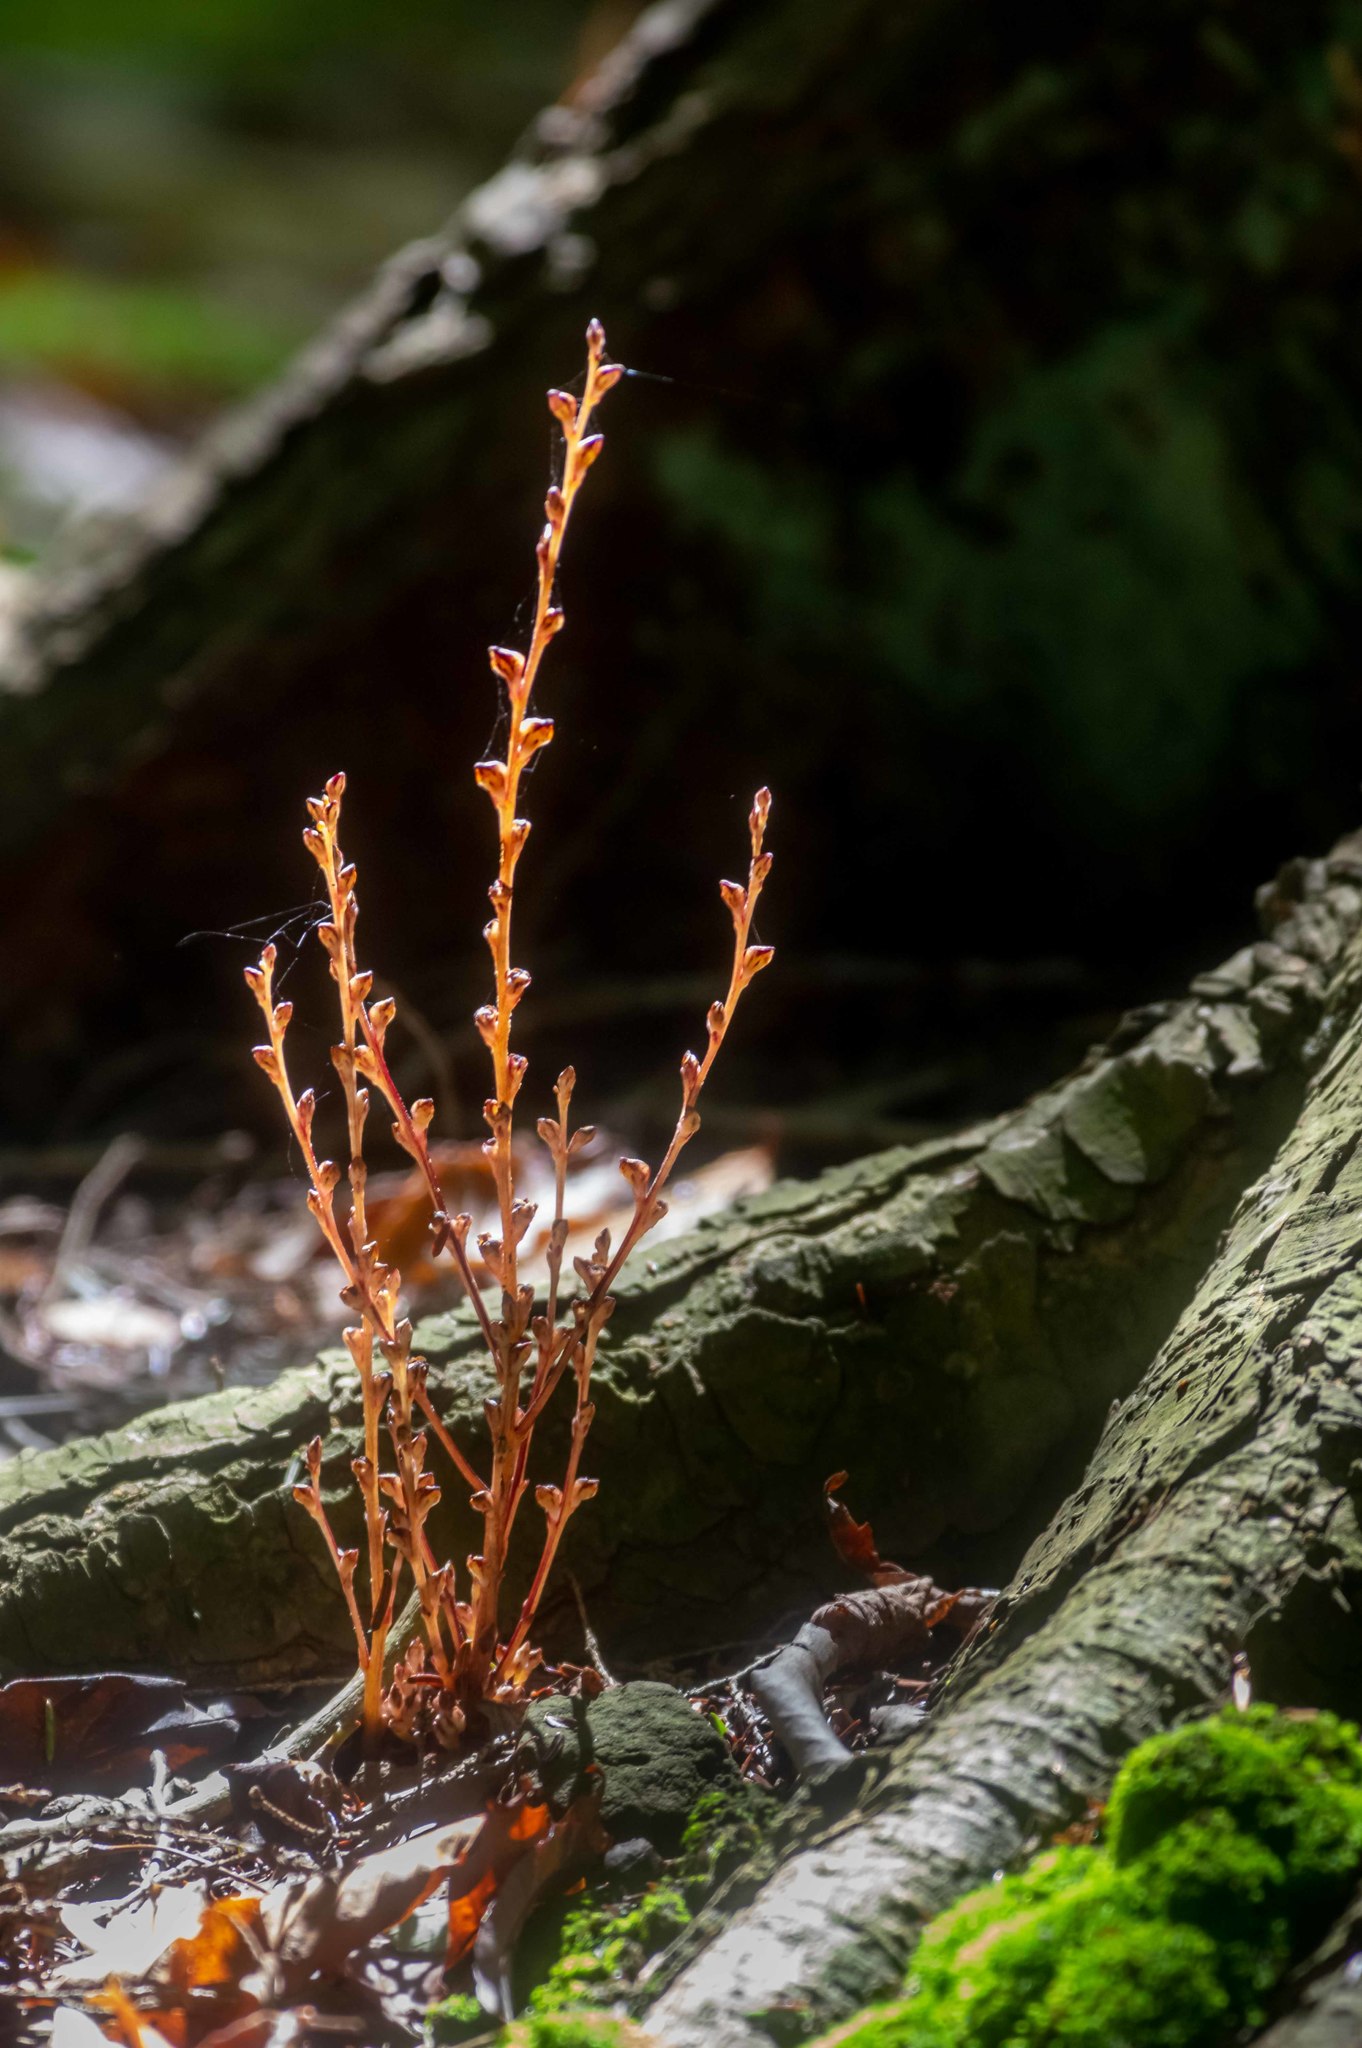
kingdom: Plantae
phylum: Tracheophyta
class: Magnoliopsida
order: Lamiales
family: Orobanchaceae
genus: Epifagus
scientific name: Epifagus virginiana
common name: Beechdrops
